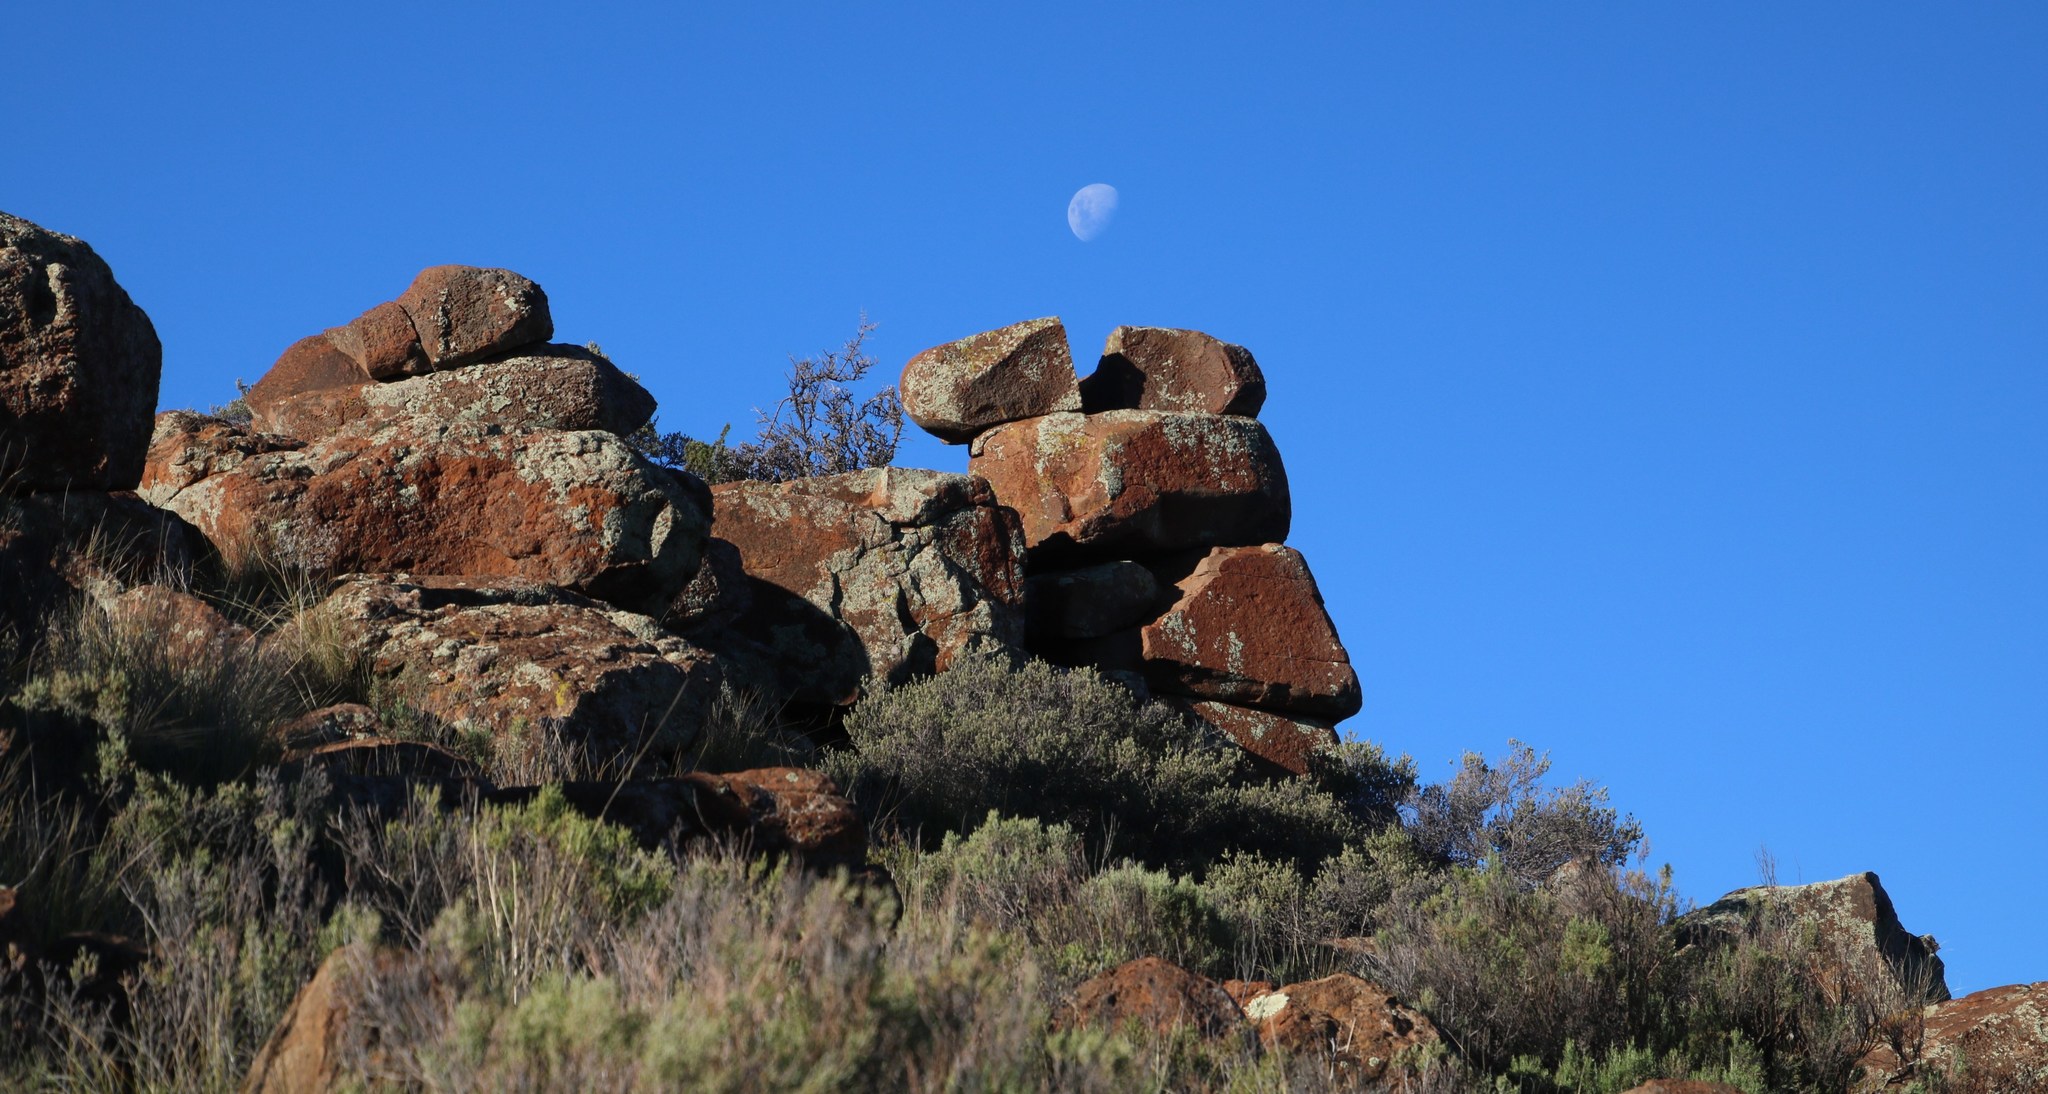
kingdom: Plantae
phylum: Tracheophyta
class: Magnoliopsida
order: Ericales
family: Ebenaceae
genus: Diospyros
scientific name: Diospyros pubescens
